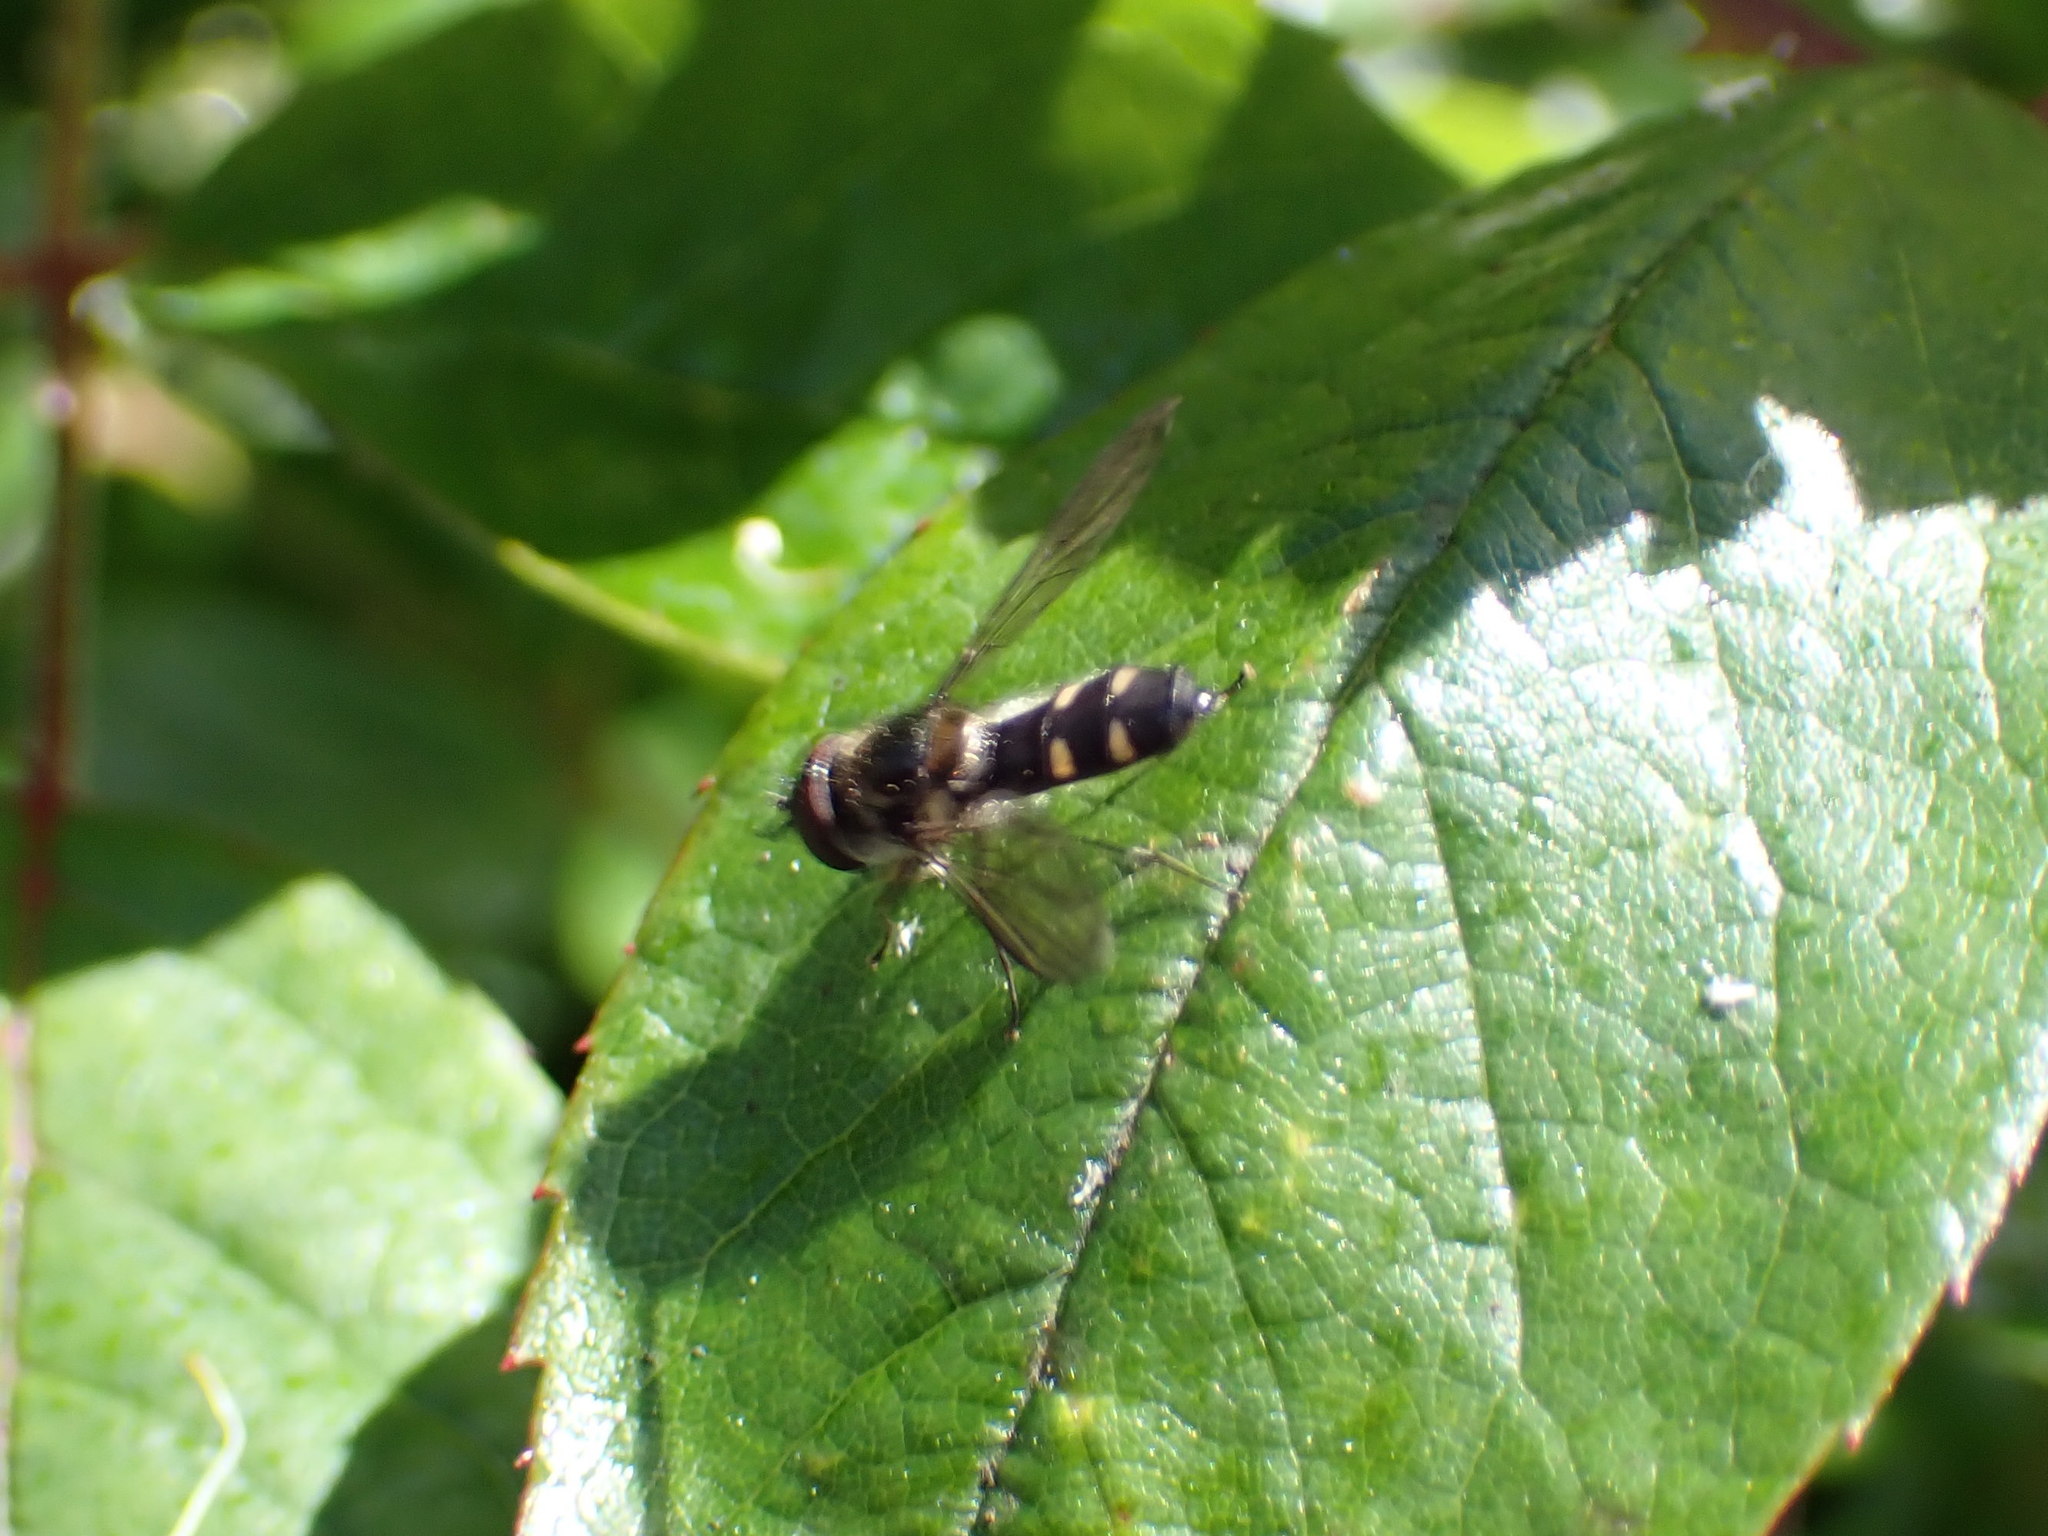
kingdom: Animalia
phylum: Arthropoda
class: Insecta
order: Diptera
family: Syrphidae
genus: Melangyna
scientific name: Melangyna novaezelandiae
